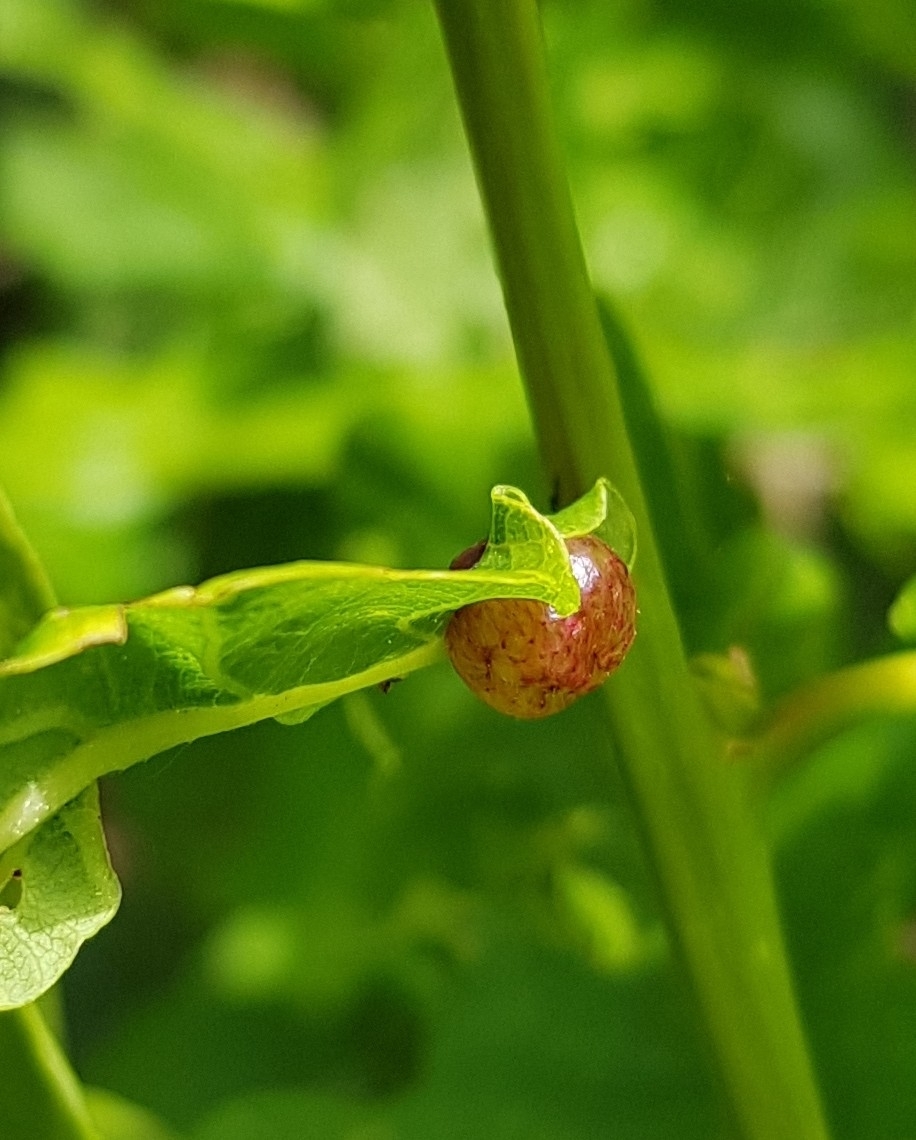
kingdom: Animalia
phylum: Arthropoda
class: Insecta
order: Hymenoptera
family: Cynipidae
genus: Neuroterus
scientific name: Neuroterus quercusbaccarum
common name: Common spangle gall
